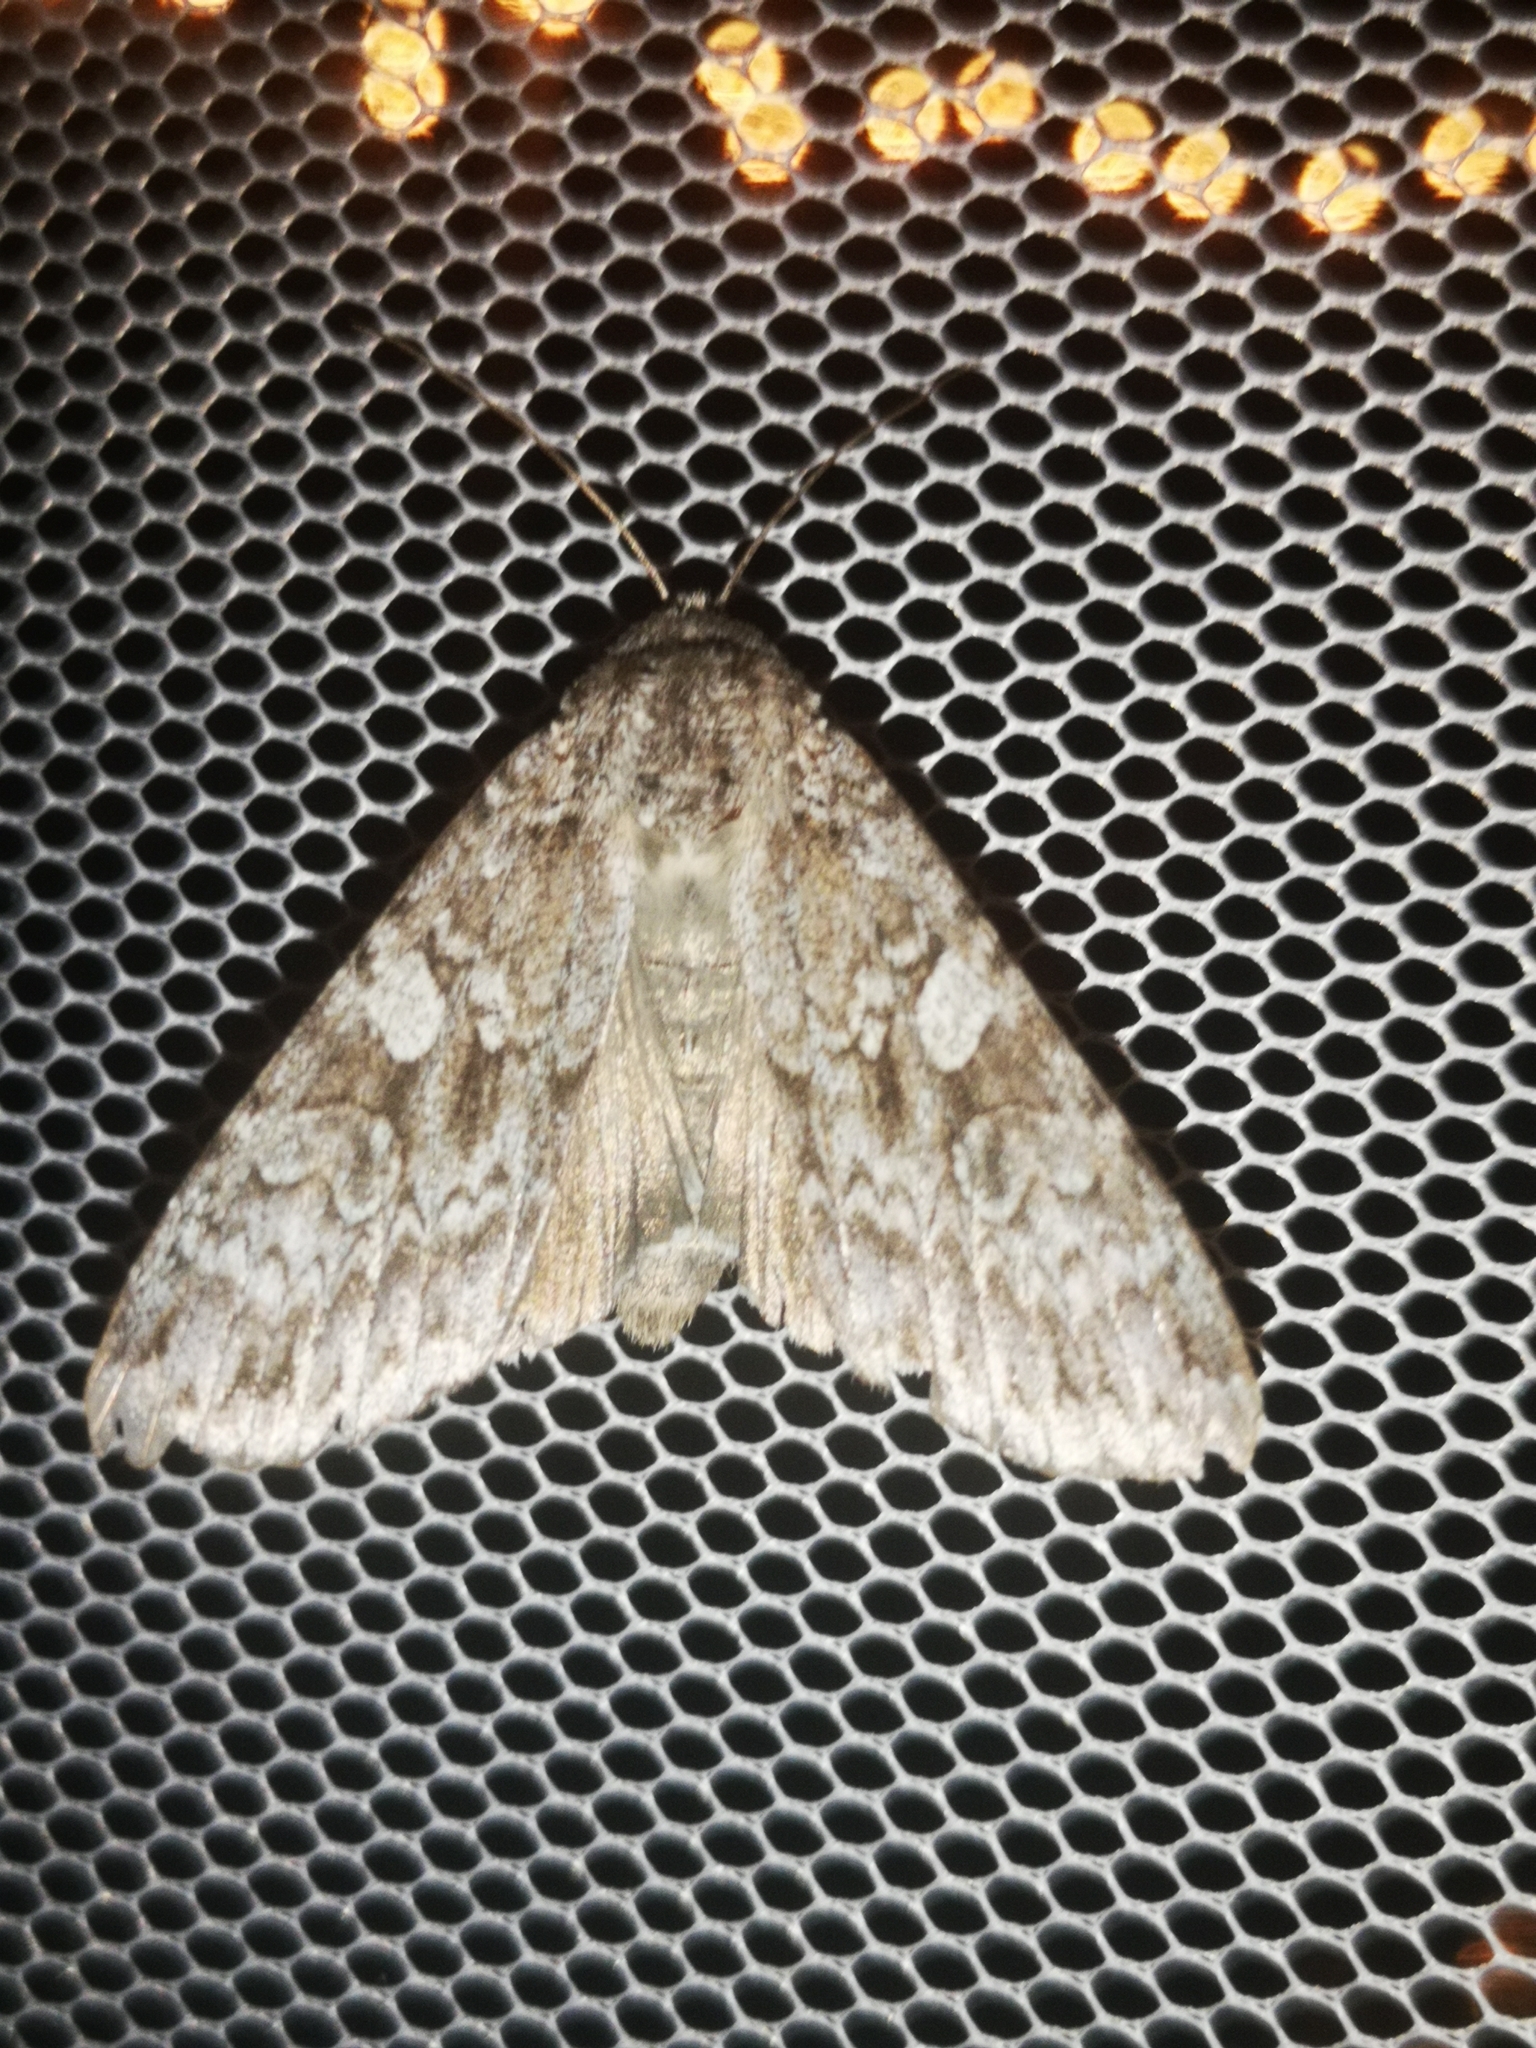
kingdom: Animalia
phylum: Arthropoda
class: Insecta
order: Lepidoptera
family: Noctuidae
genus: Eurois
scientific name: Eurois occulta
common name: Great brocade
